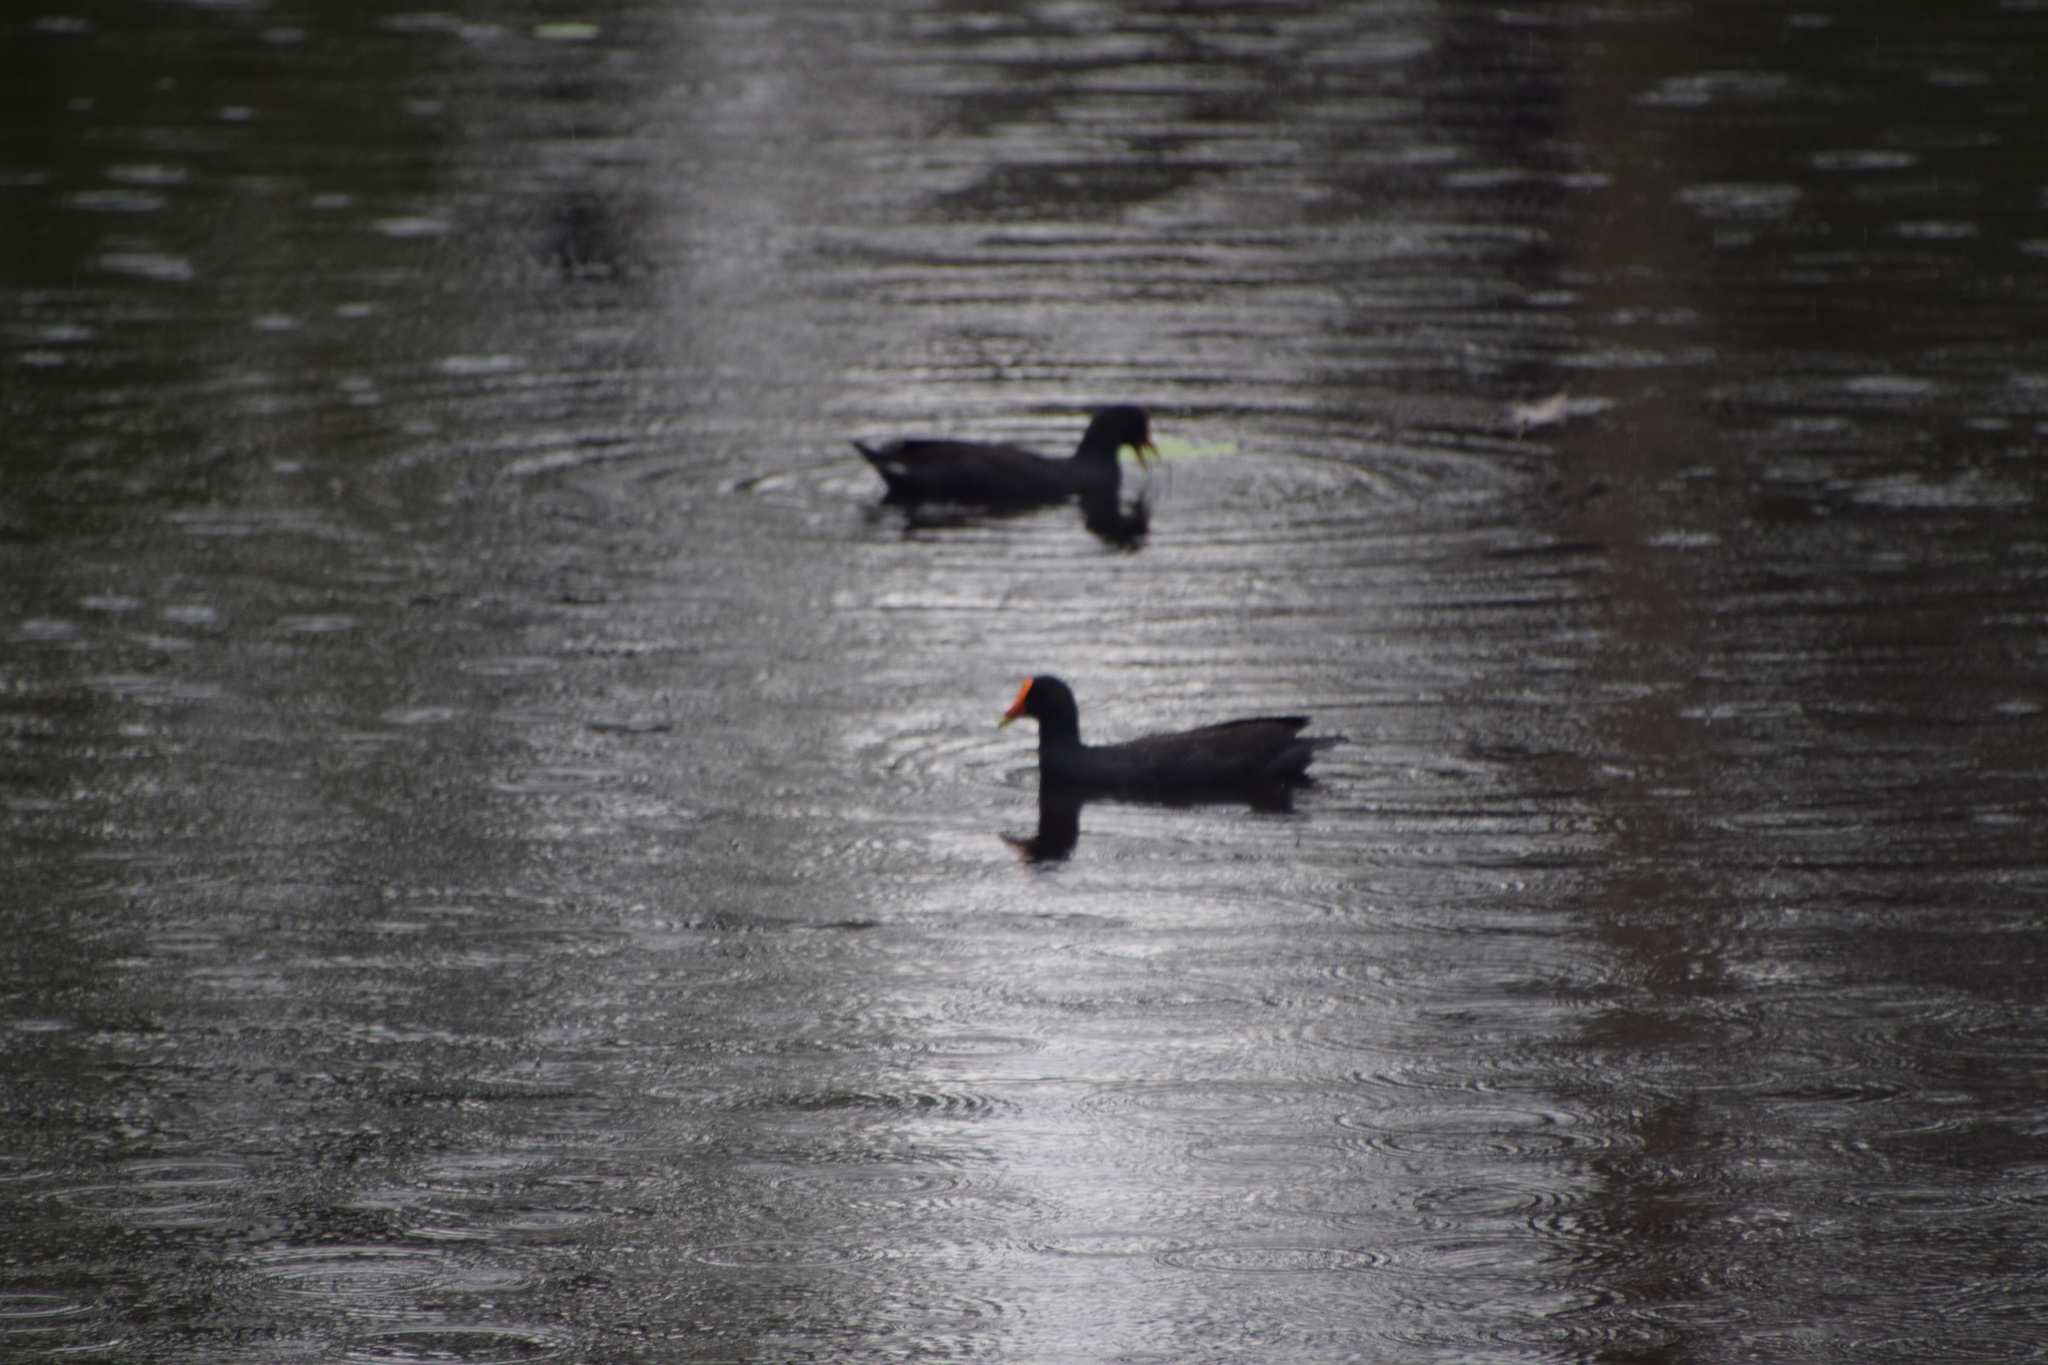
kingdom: Animalia
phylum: Chordata
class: Aves
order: Gruiformes
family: Rallidae
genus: Gallinula
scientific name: Gallinula tenebrosa
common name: Dusky moorhen
